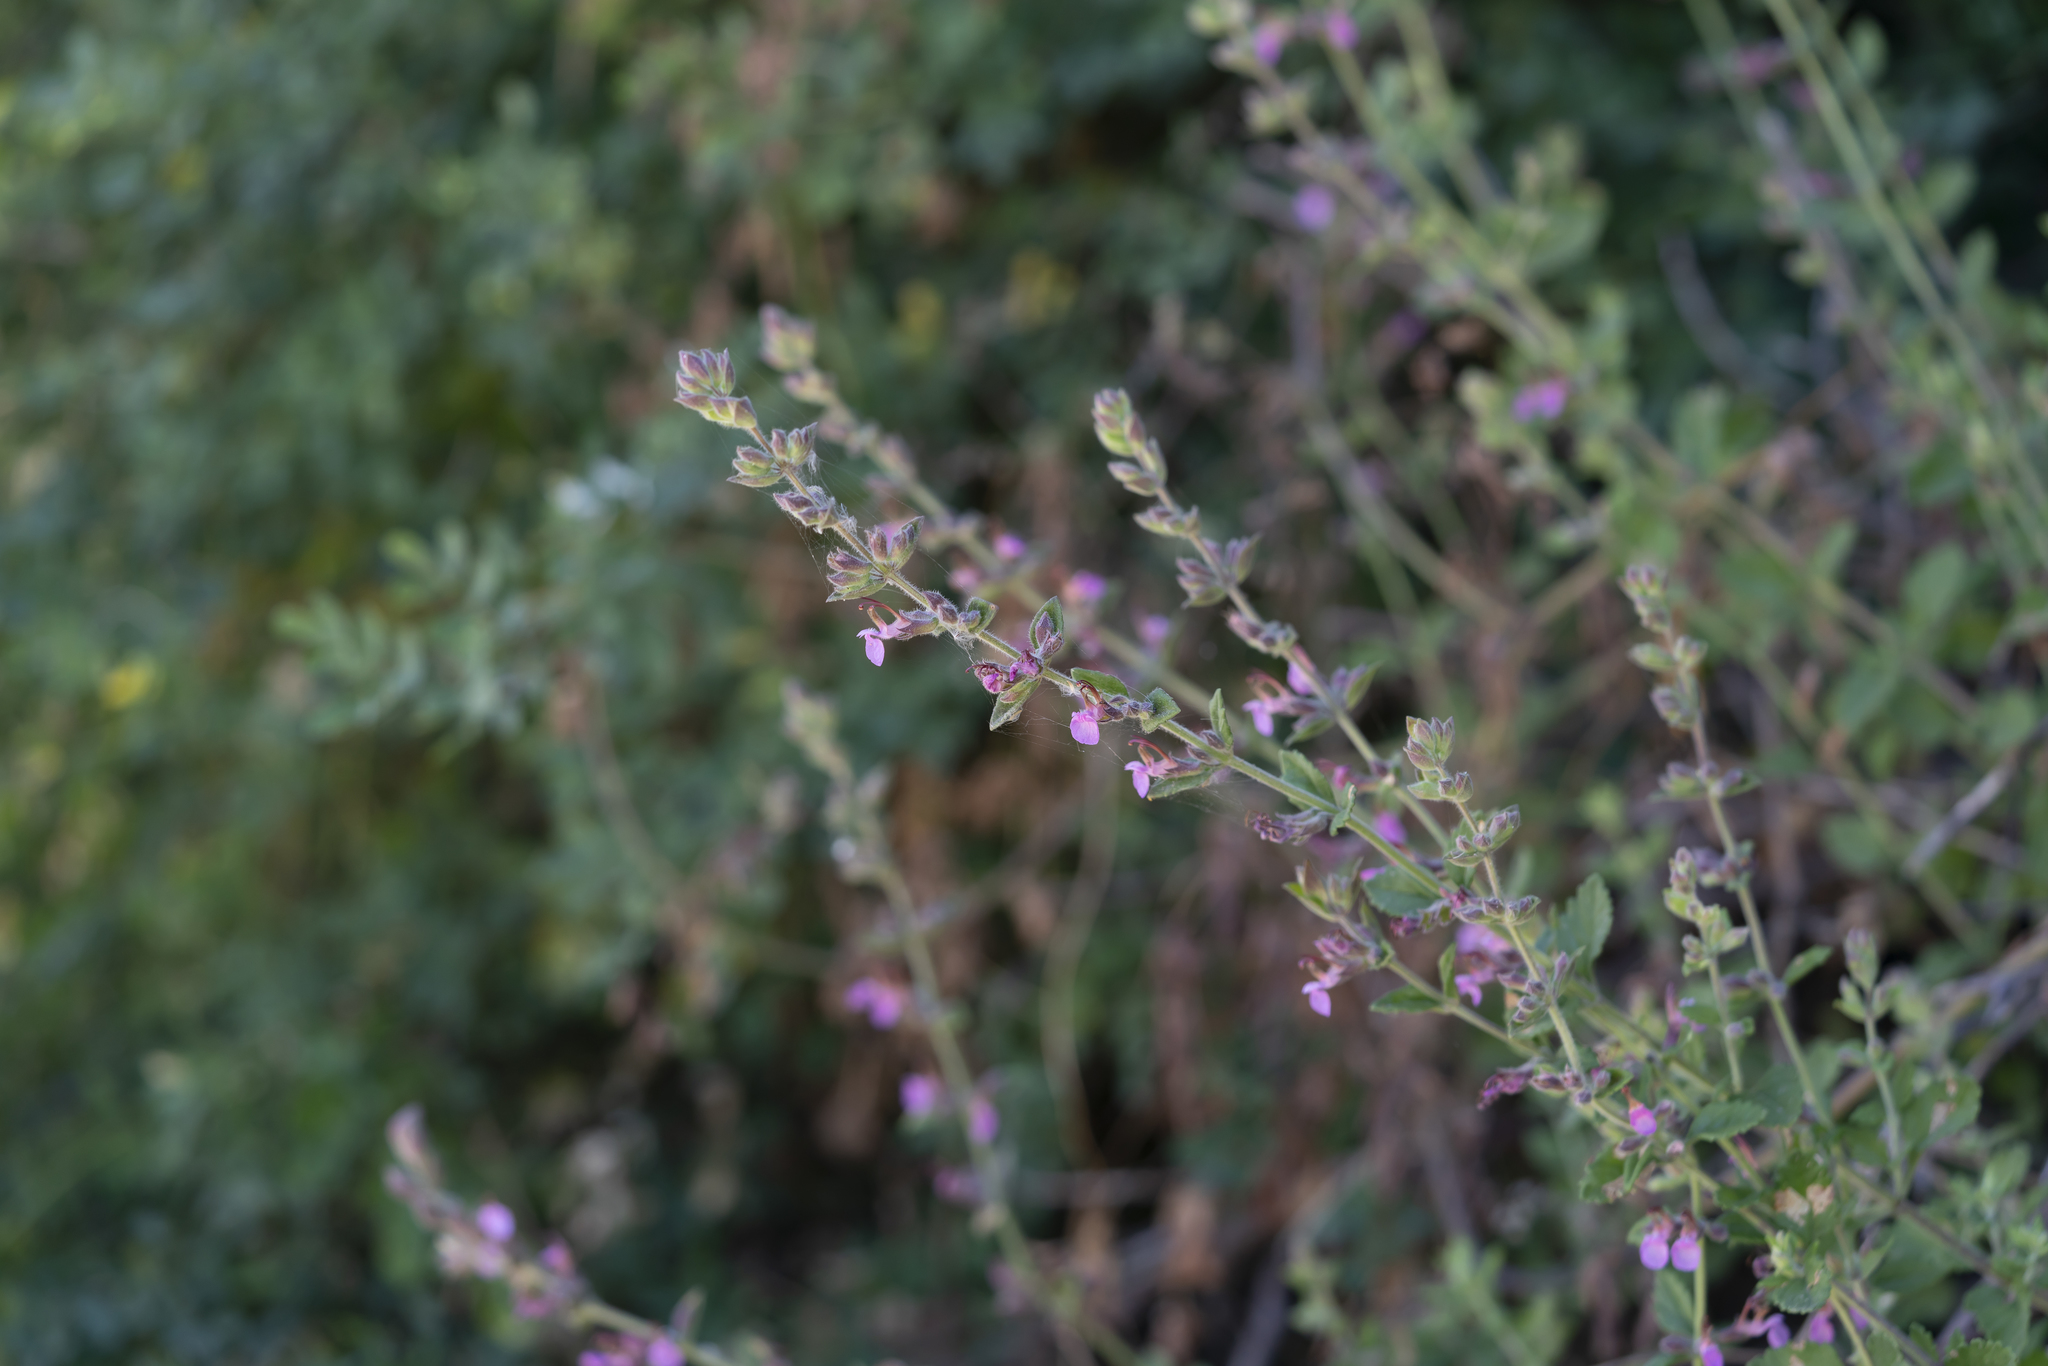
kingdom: Plantae
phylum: Tracheophyta
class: Magnoliopsida
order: Lamiales
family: Lamiaceae
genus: Teucrium
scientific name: Teucrium divaricatum
